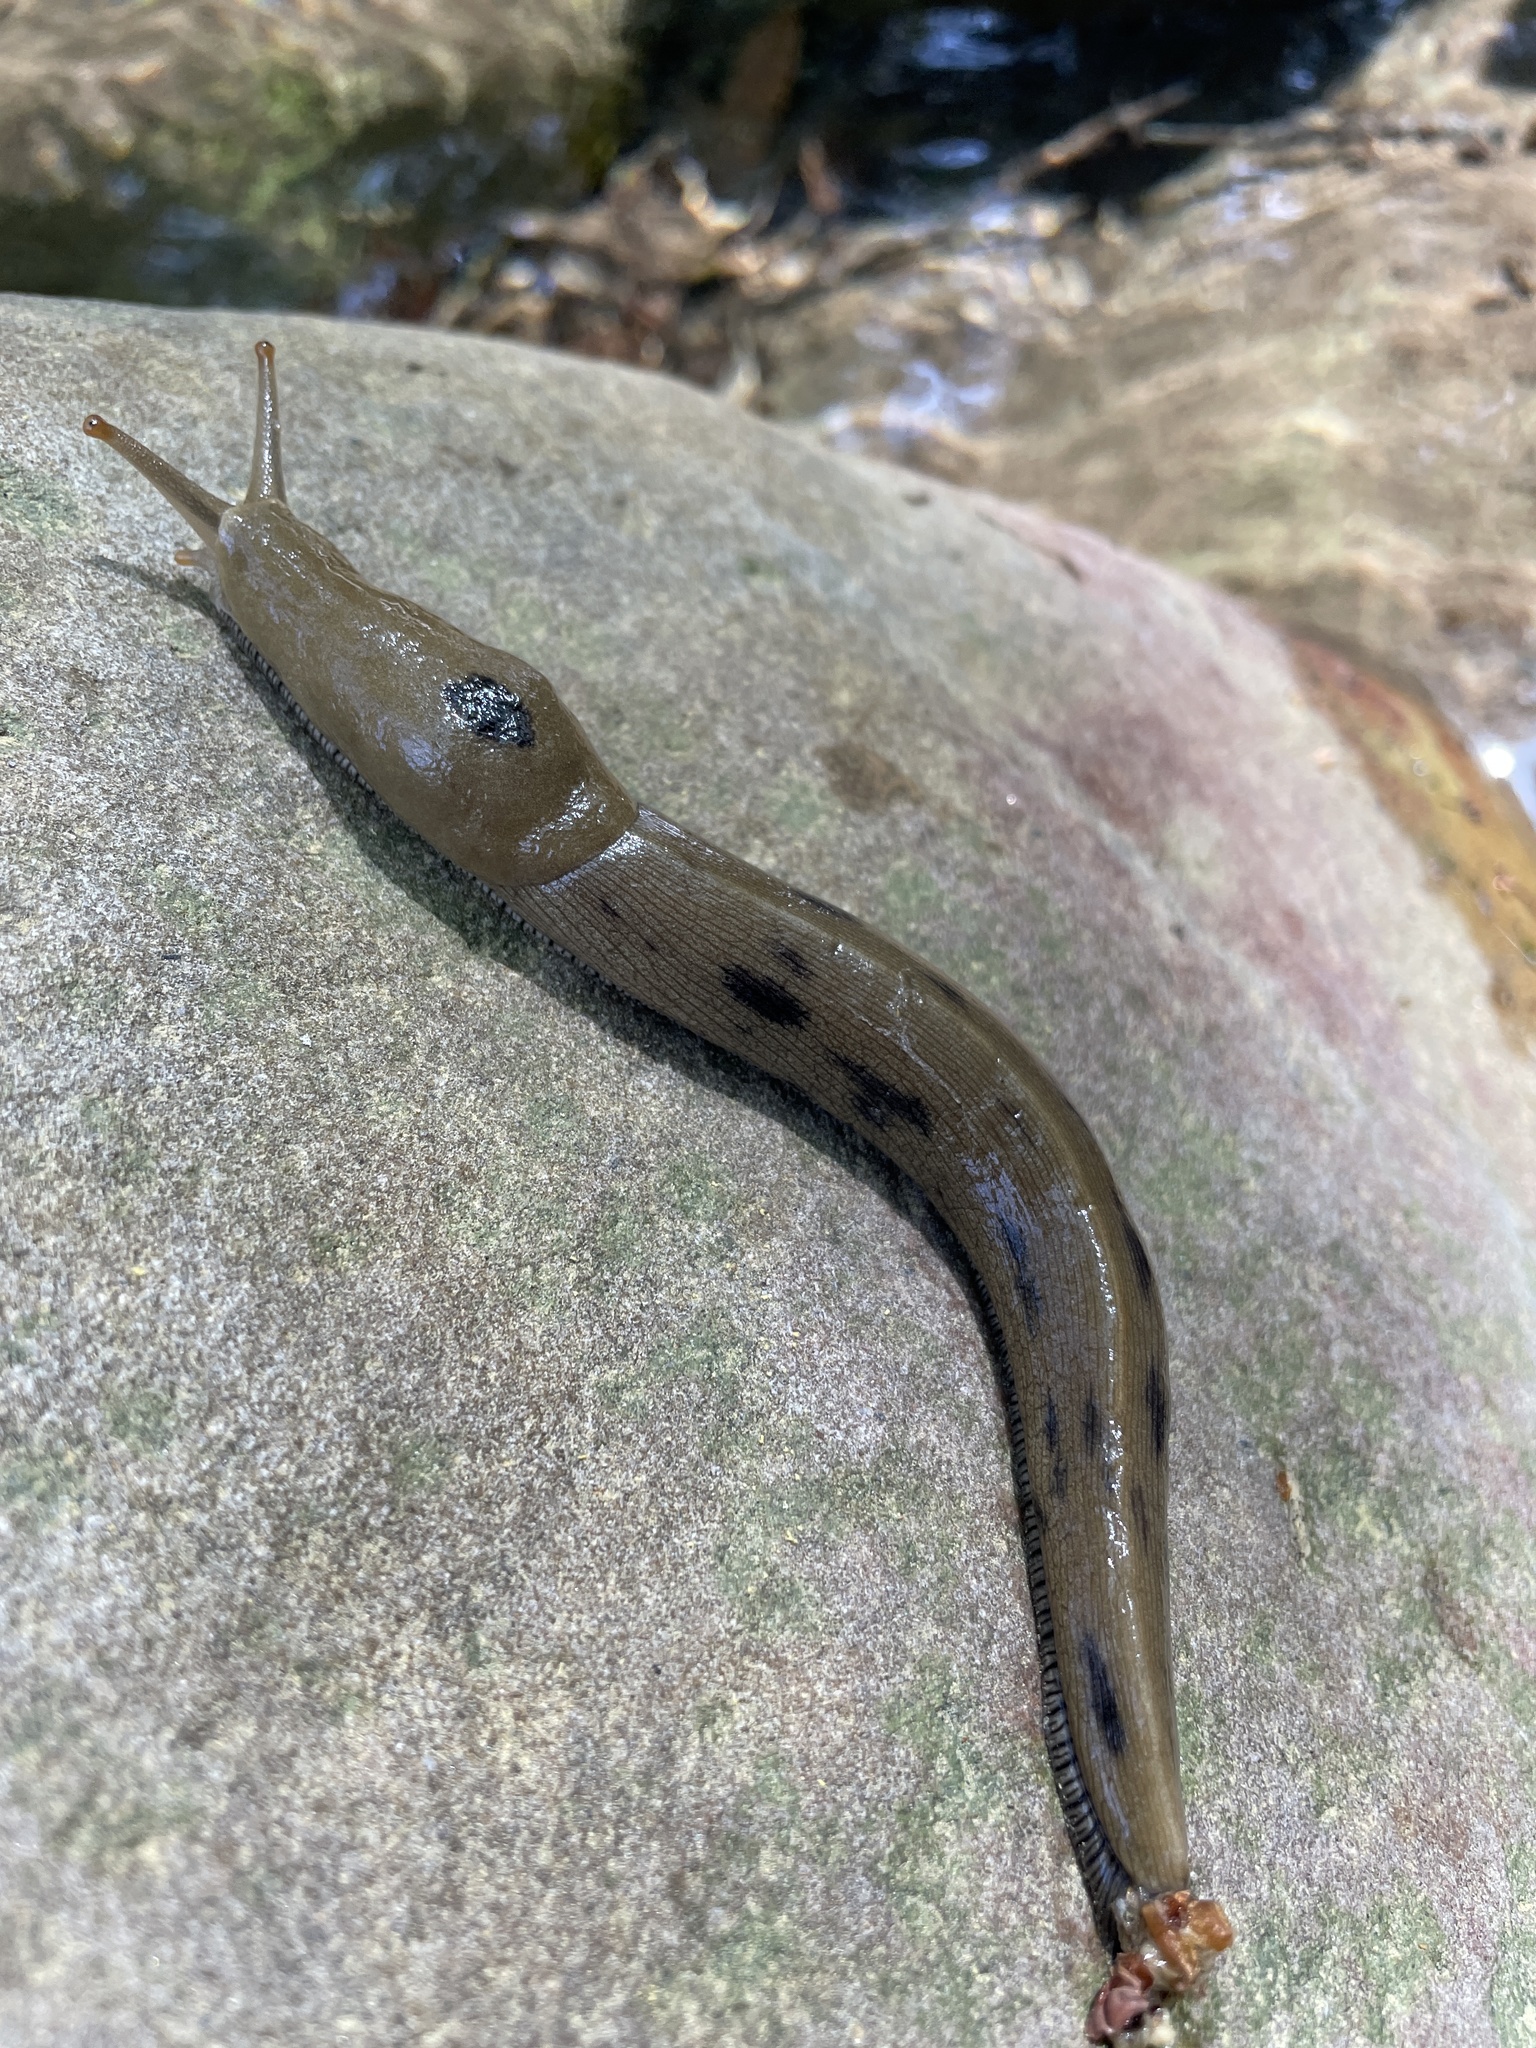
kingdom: Animalia
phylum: Mollusca
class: Gastropoda
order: Stylommatophora
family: Ariolimacidae
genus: Ariolimax
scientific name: Ariolimax buttoni
